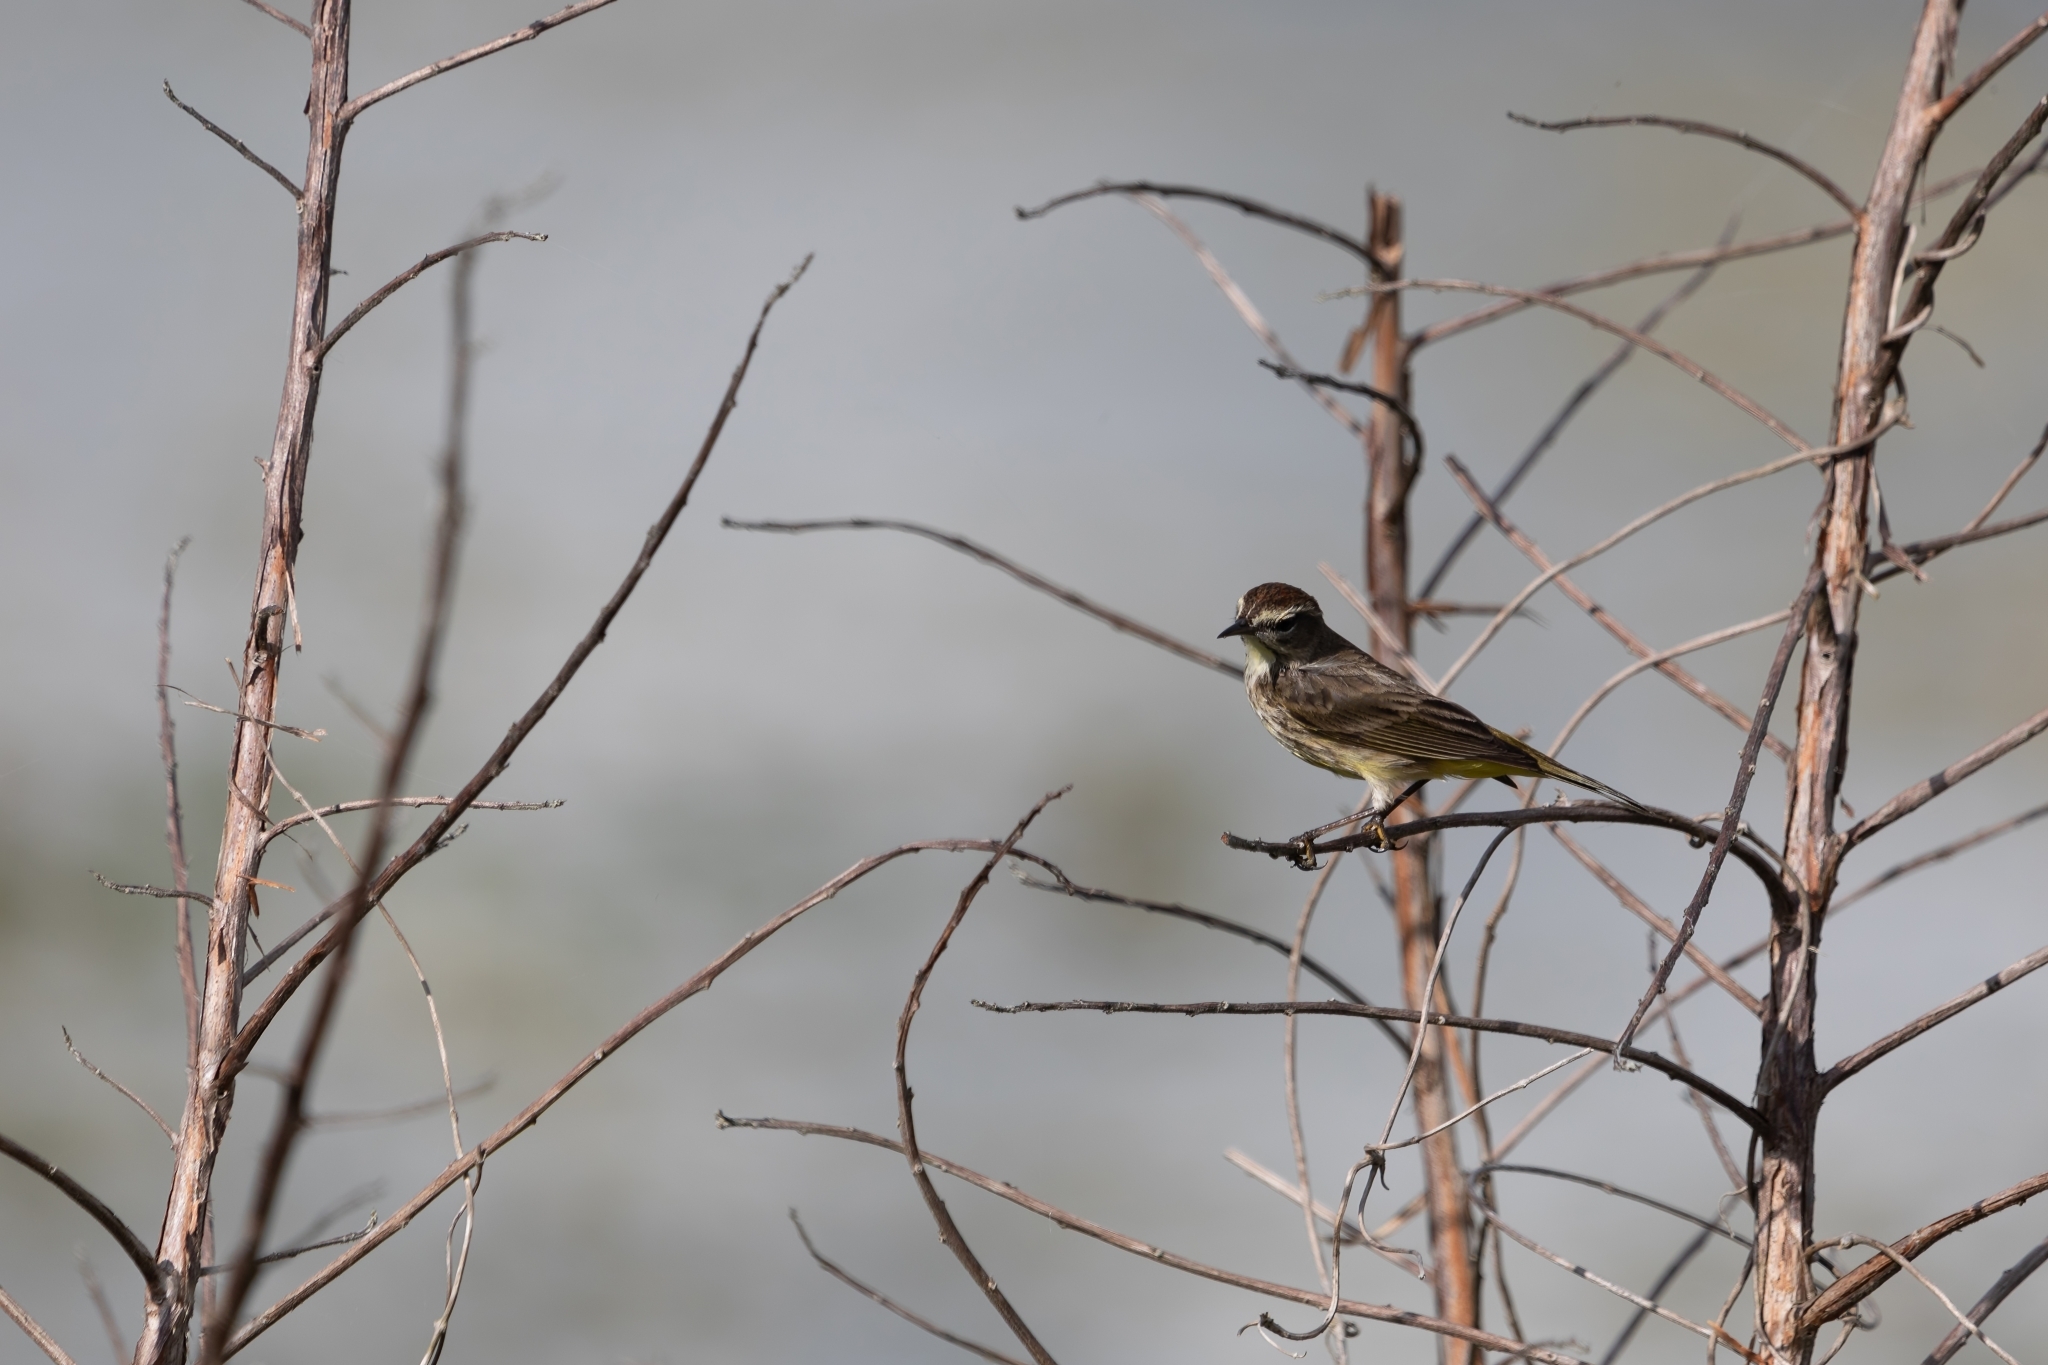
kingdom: Animalia
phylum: Chordata
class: Aves
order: Passeriformes
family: Parulidae
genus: Setophaga
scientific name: Setophaga palmarum
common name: Palm warbler
